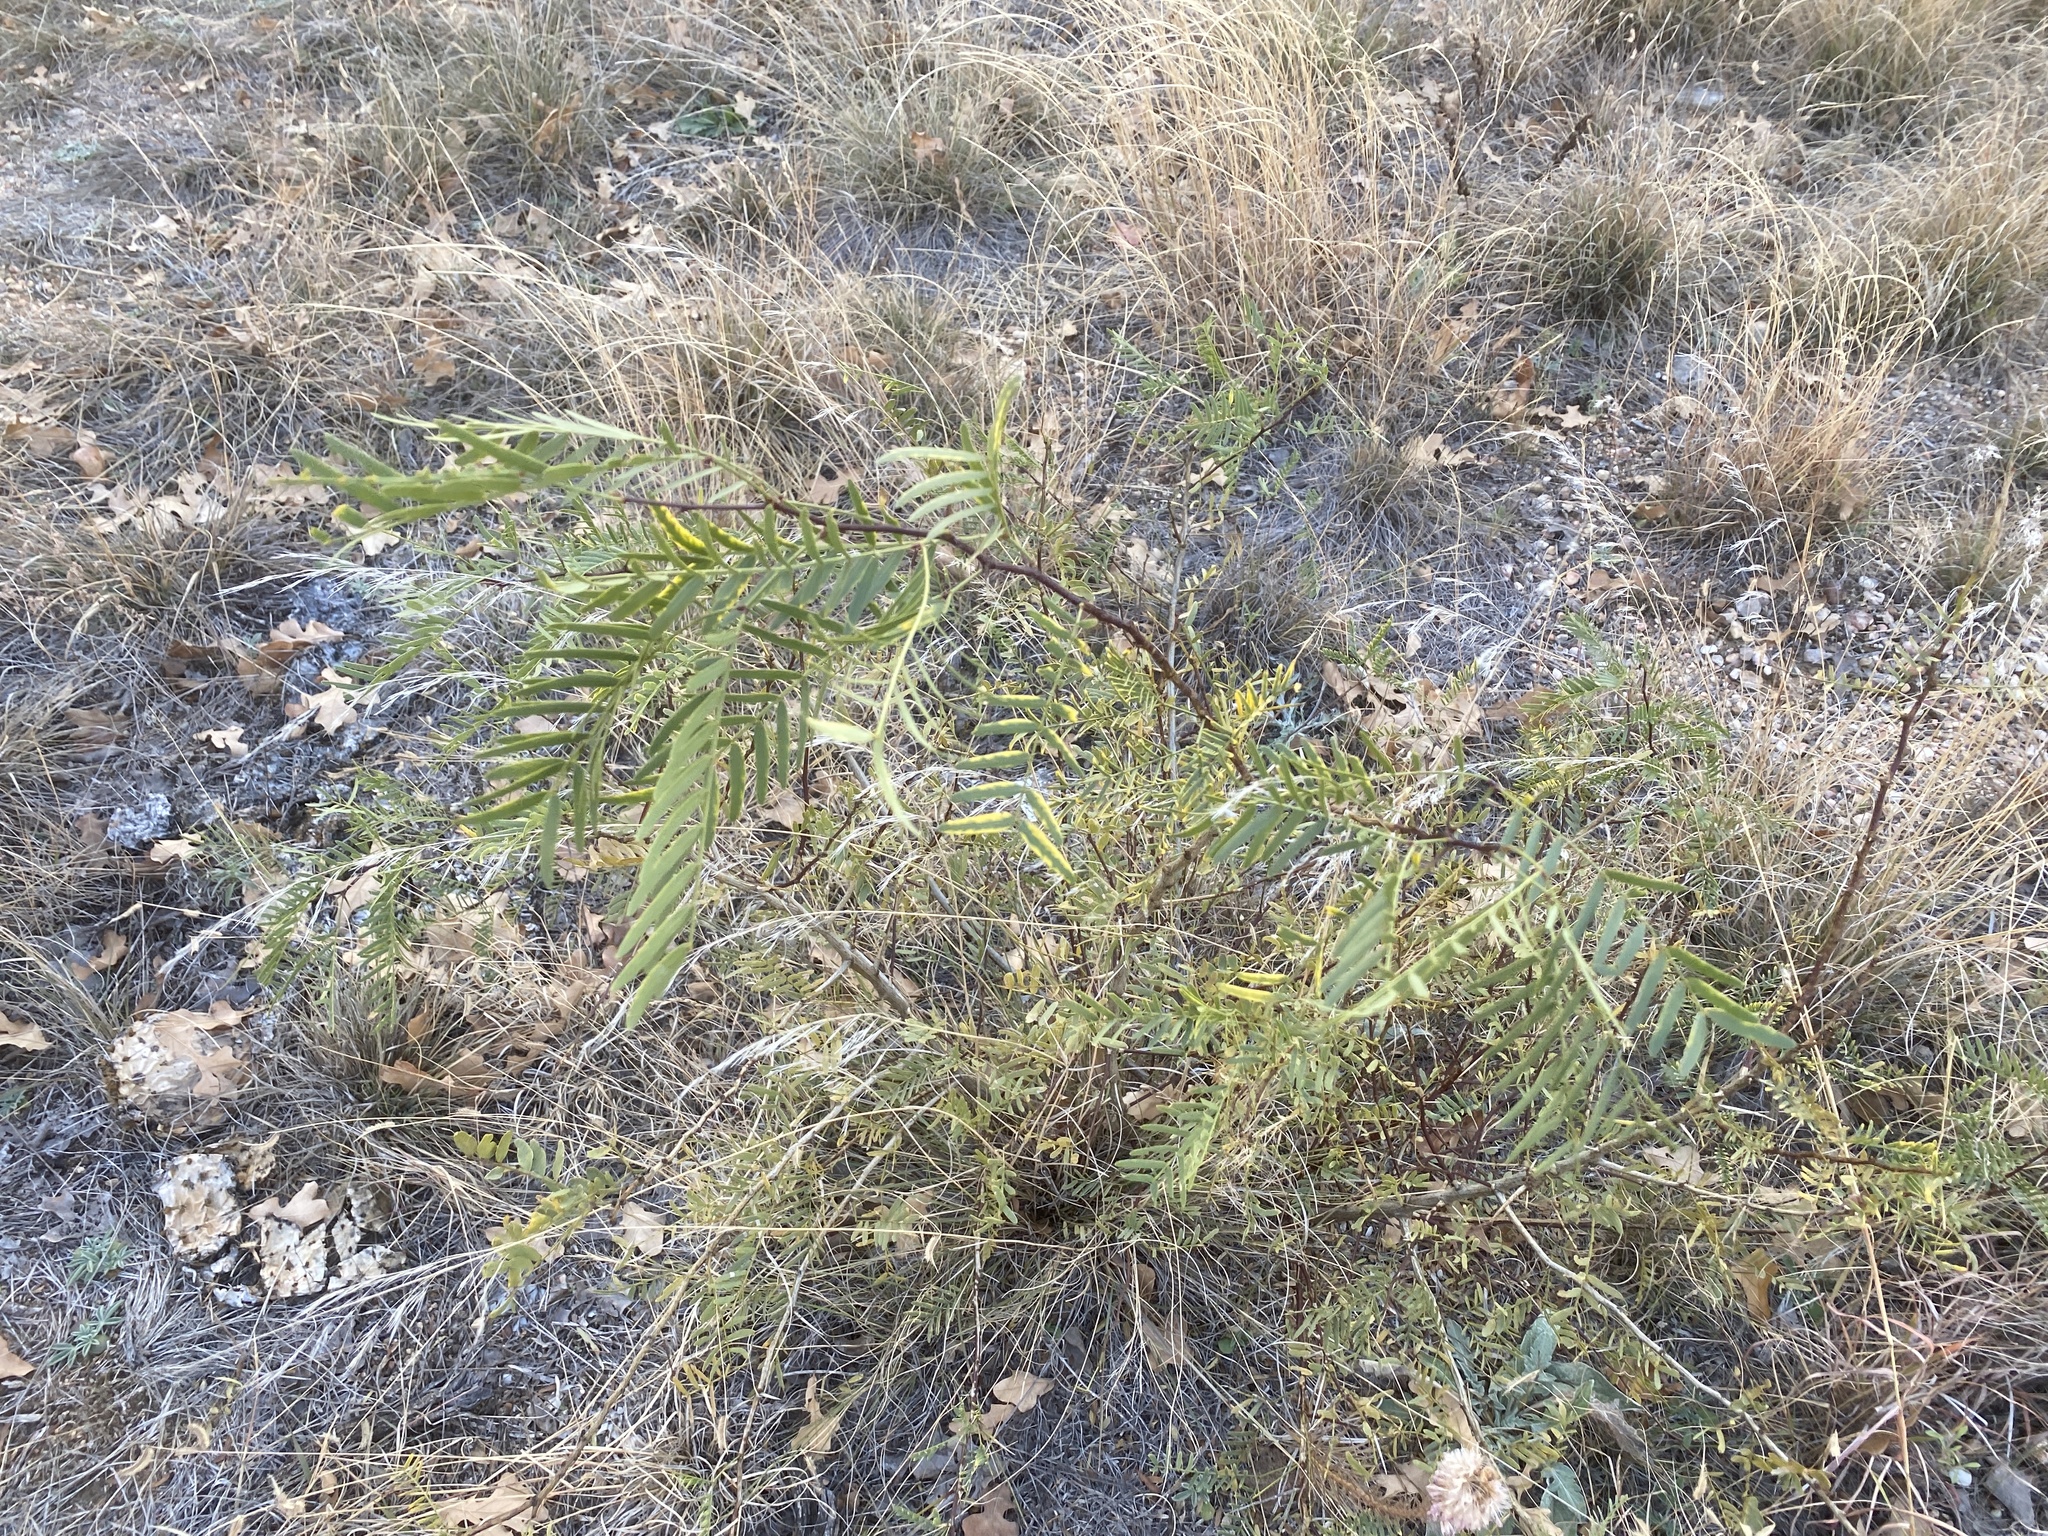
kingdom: Plantae
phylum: Tracheophyta
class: Magnoliopsida
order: Fabales
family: Fabaceae
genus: Prosopis
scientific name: Prosopis glandulosa
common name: Honey mesquite
